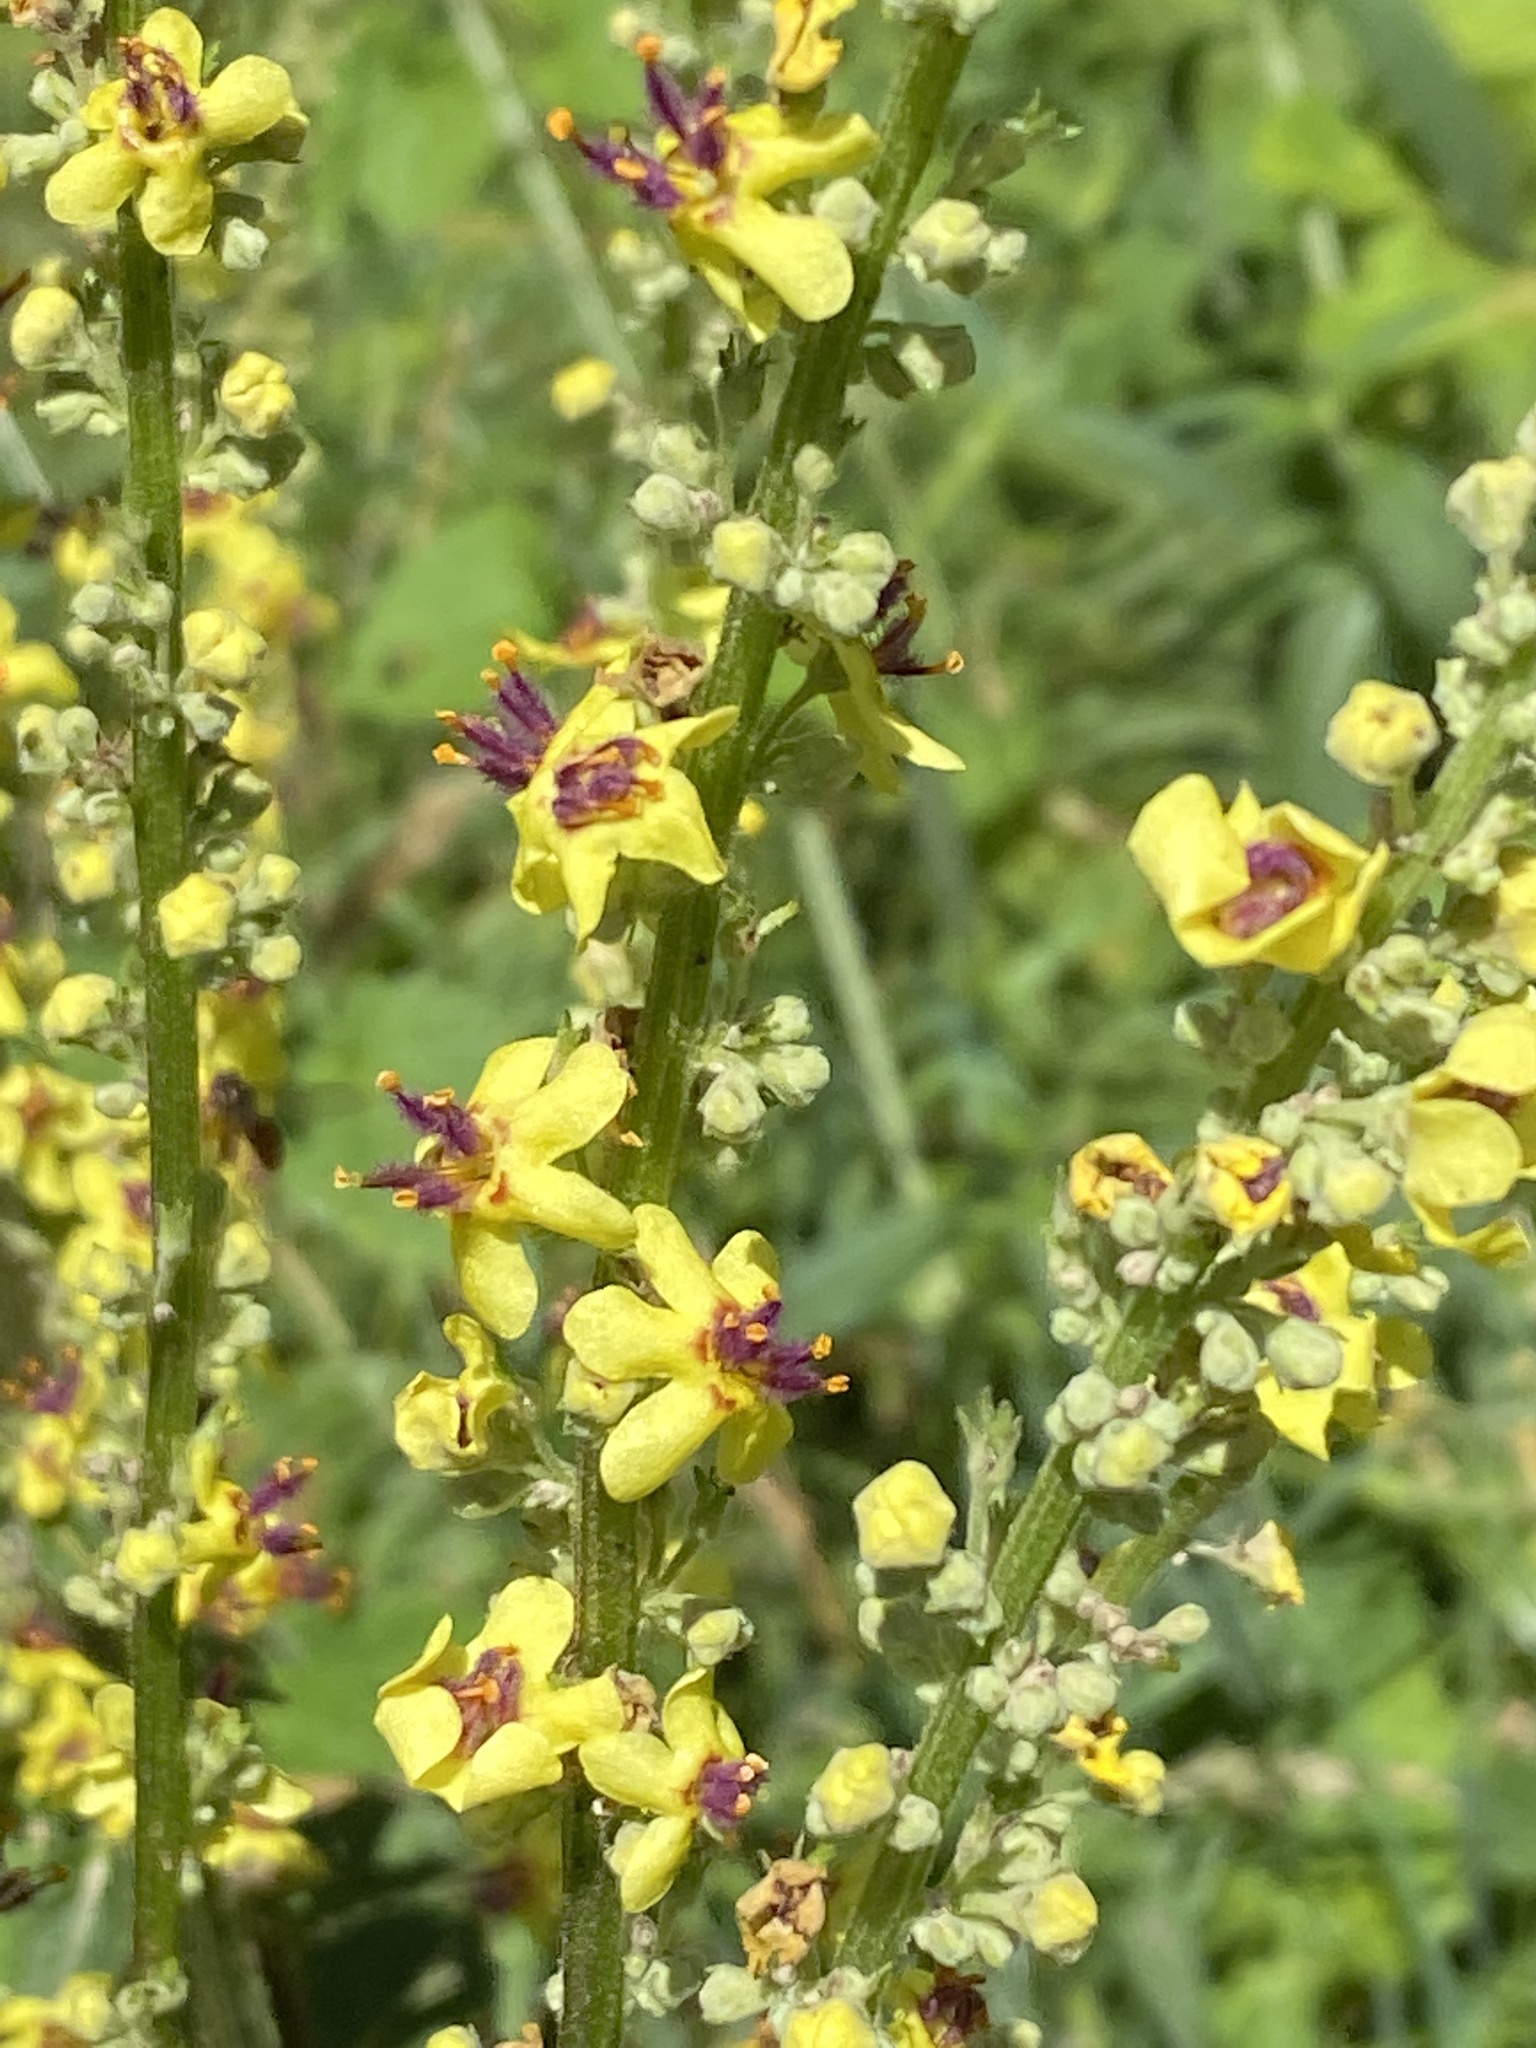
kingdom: Plantae
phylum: Tracheophyta
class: Magnoliopsida
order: Lamiales
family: Scrophulariaceae
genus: Verbascum
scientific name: Verbascum nigrum
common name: Dark mullein
